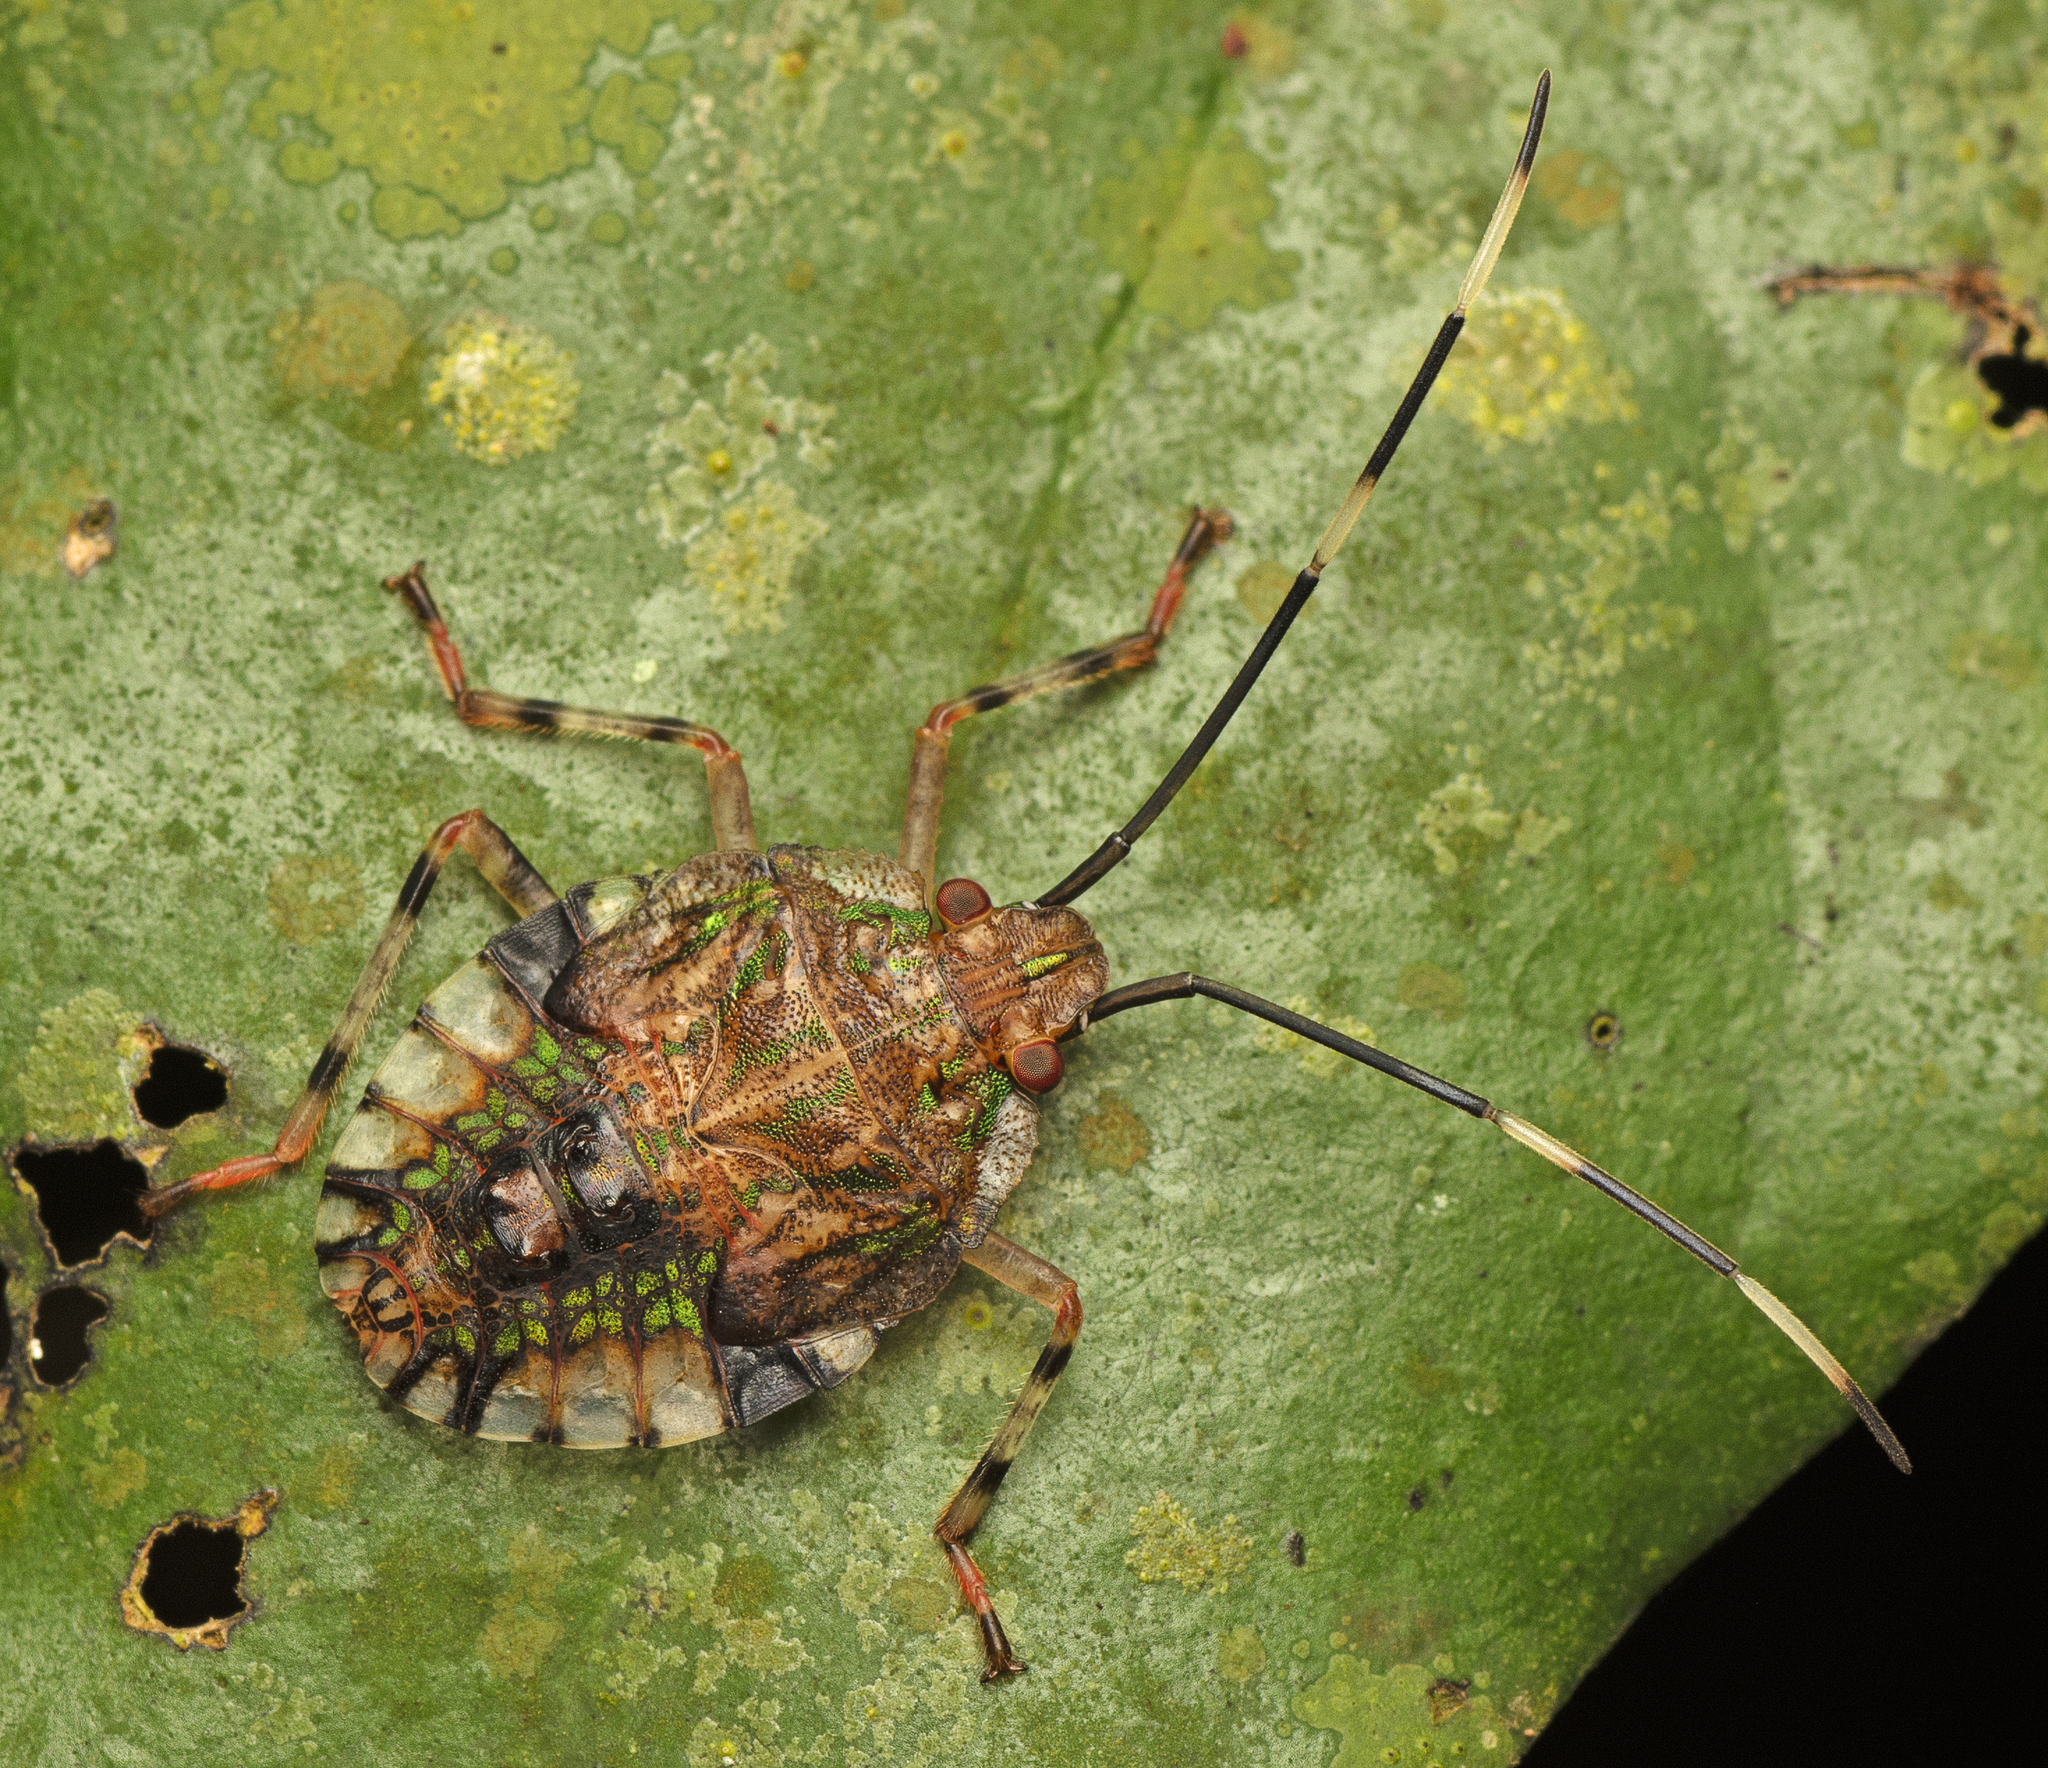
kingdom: Animalia
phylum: Arthropoda
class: Insecta
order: Hemiptera
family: Pentatomidae
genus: Bathrus
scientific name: Bathrus
